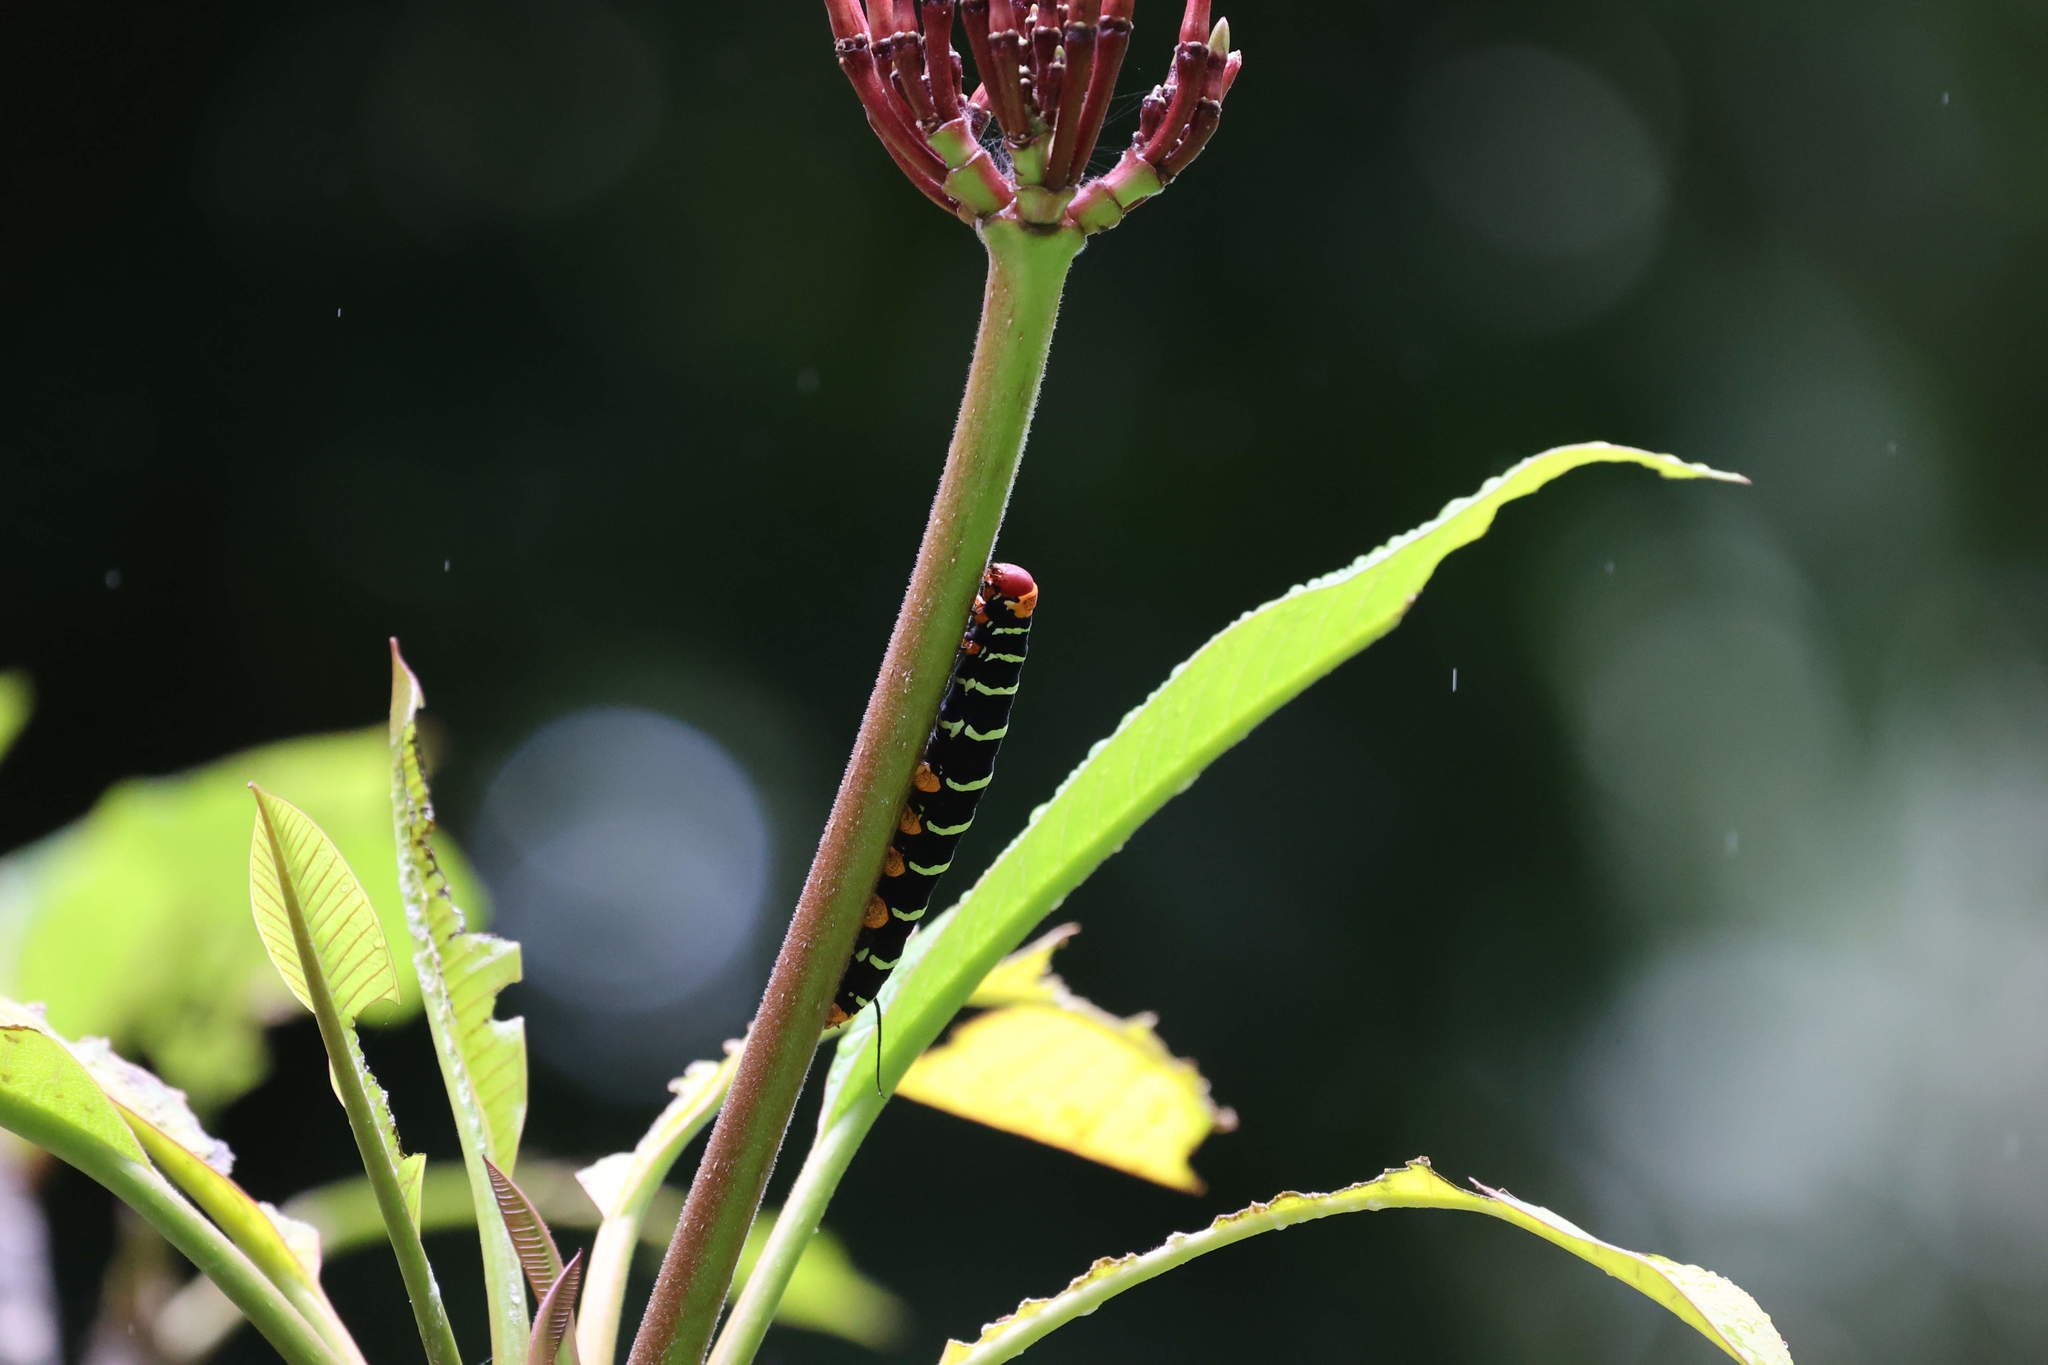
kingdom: Animalia
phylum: Arthropoda
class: Insecta
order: Lepidoptera
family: Sphingidae
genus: Pseudosphinx
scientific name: Pseudosphinx tetrio
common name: Tetrio sphinx
